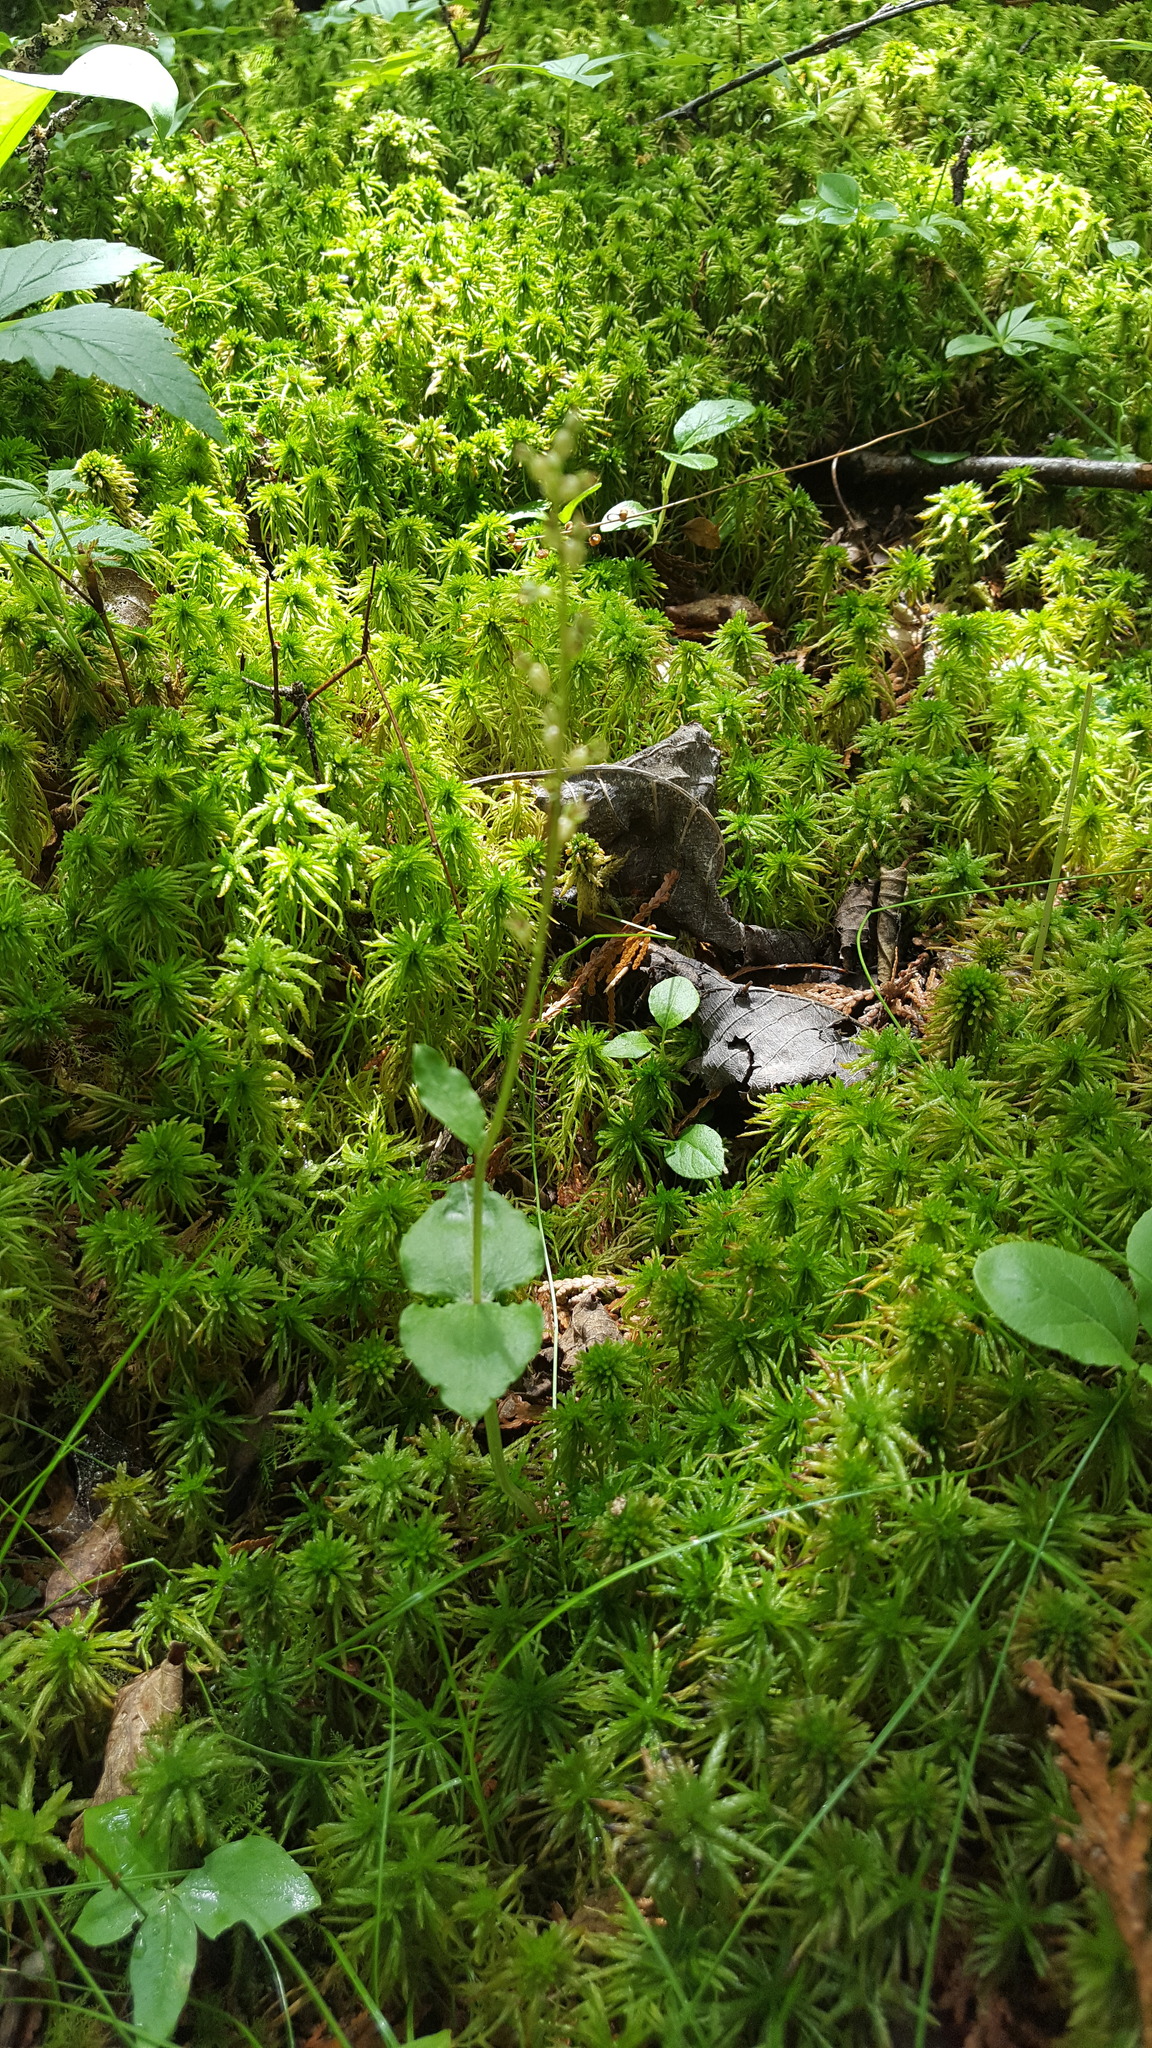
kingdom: Plantae
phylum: Tracheophyta
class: Liliopsida
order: Asparagales
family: Orchidaceae
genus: Neottia
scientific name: Neottia cordata
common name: Lesser twayblade
